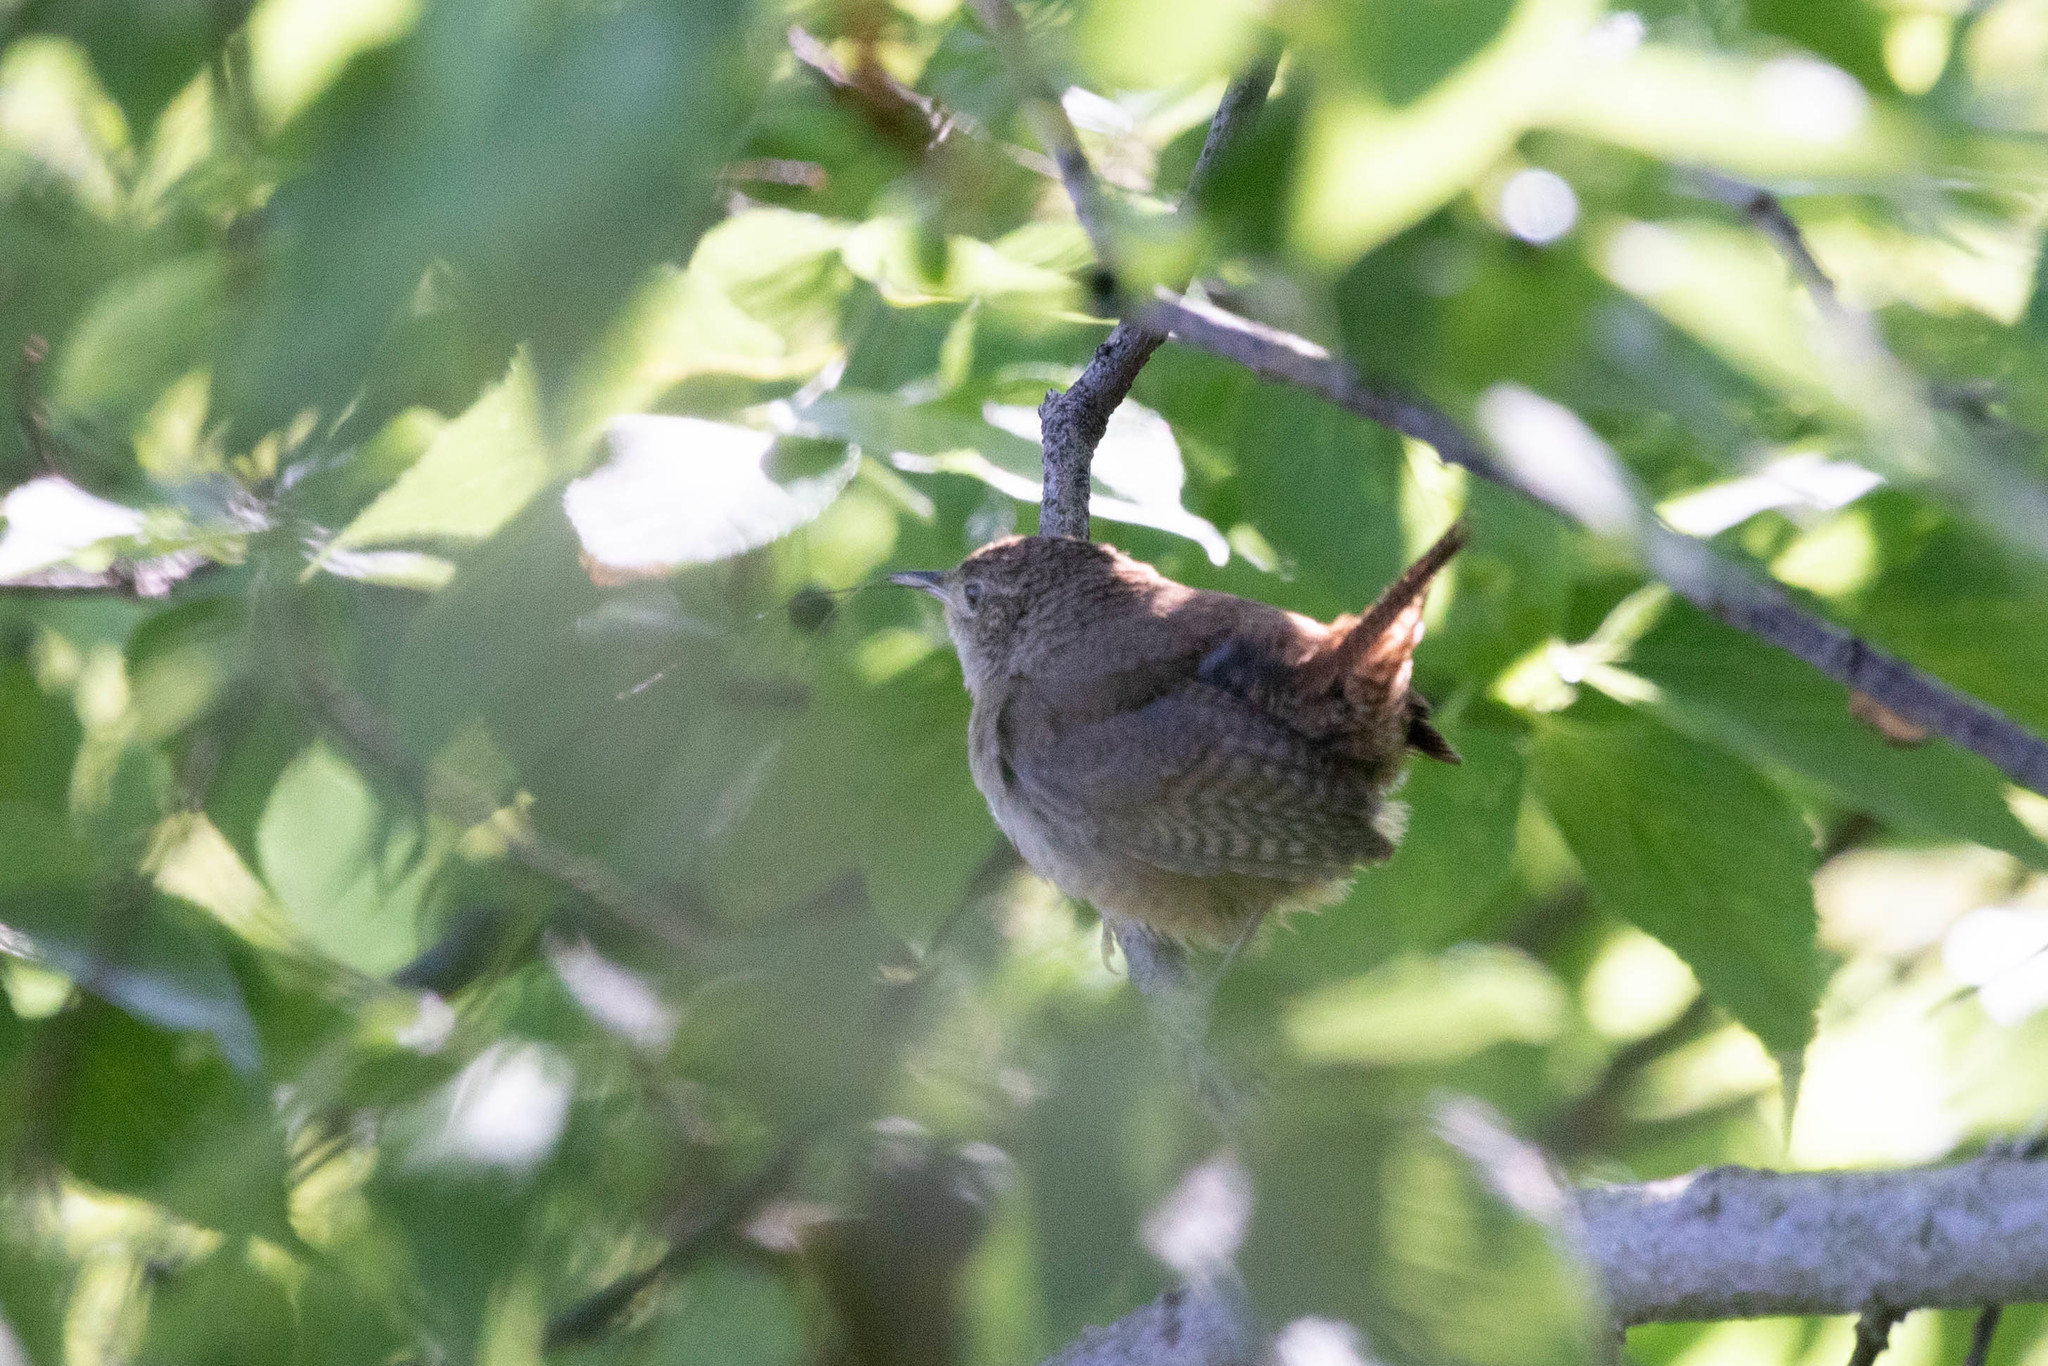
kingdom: Animalia
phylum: Chordata
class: Aves
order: Passeriformes
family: Troglodytidae
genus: Troglodytes
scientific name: Troglodytes aedon
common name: House wren
